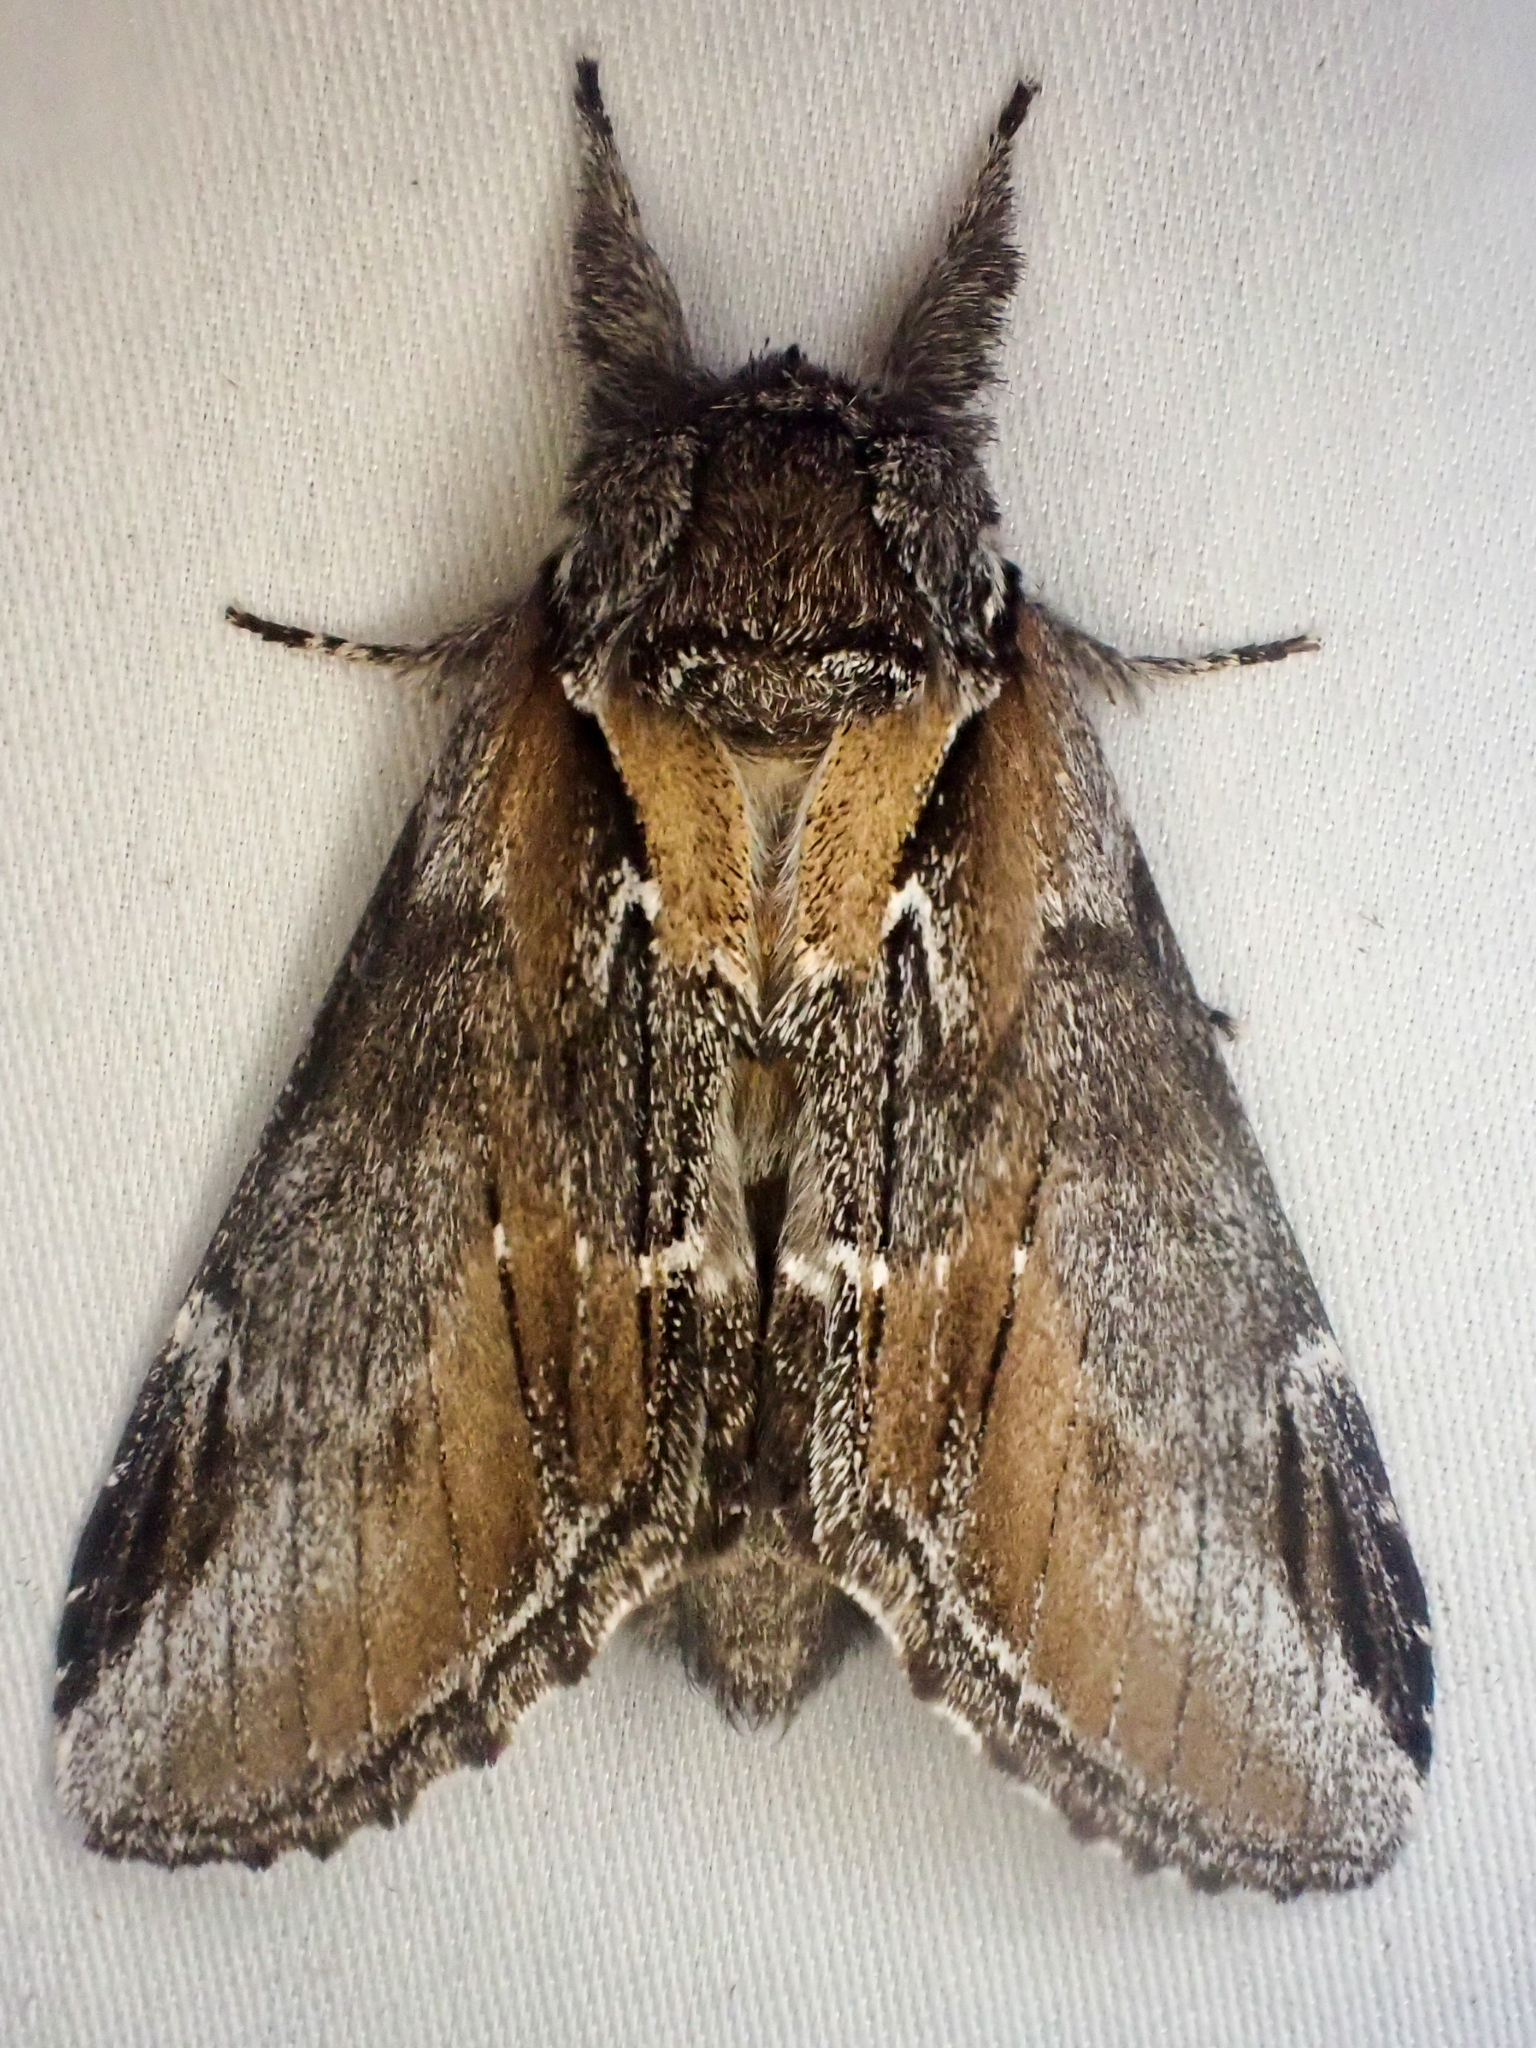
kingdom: Animalia
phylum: Arthropoda
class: Insecta
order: Lepidoptera
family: Notodontidae
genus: Pheosia
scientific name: Pheosia rimosa
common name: Black-rimmed prominent
